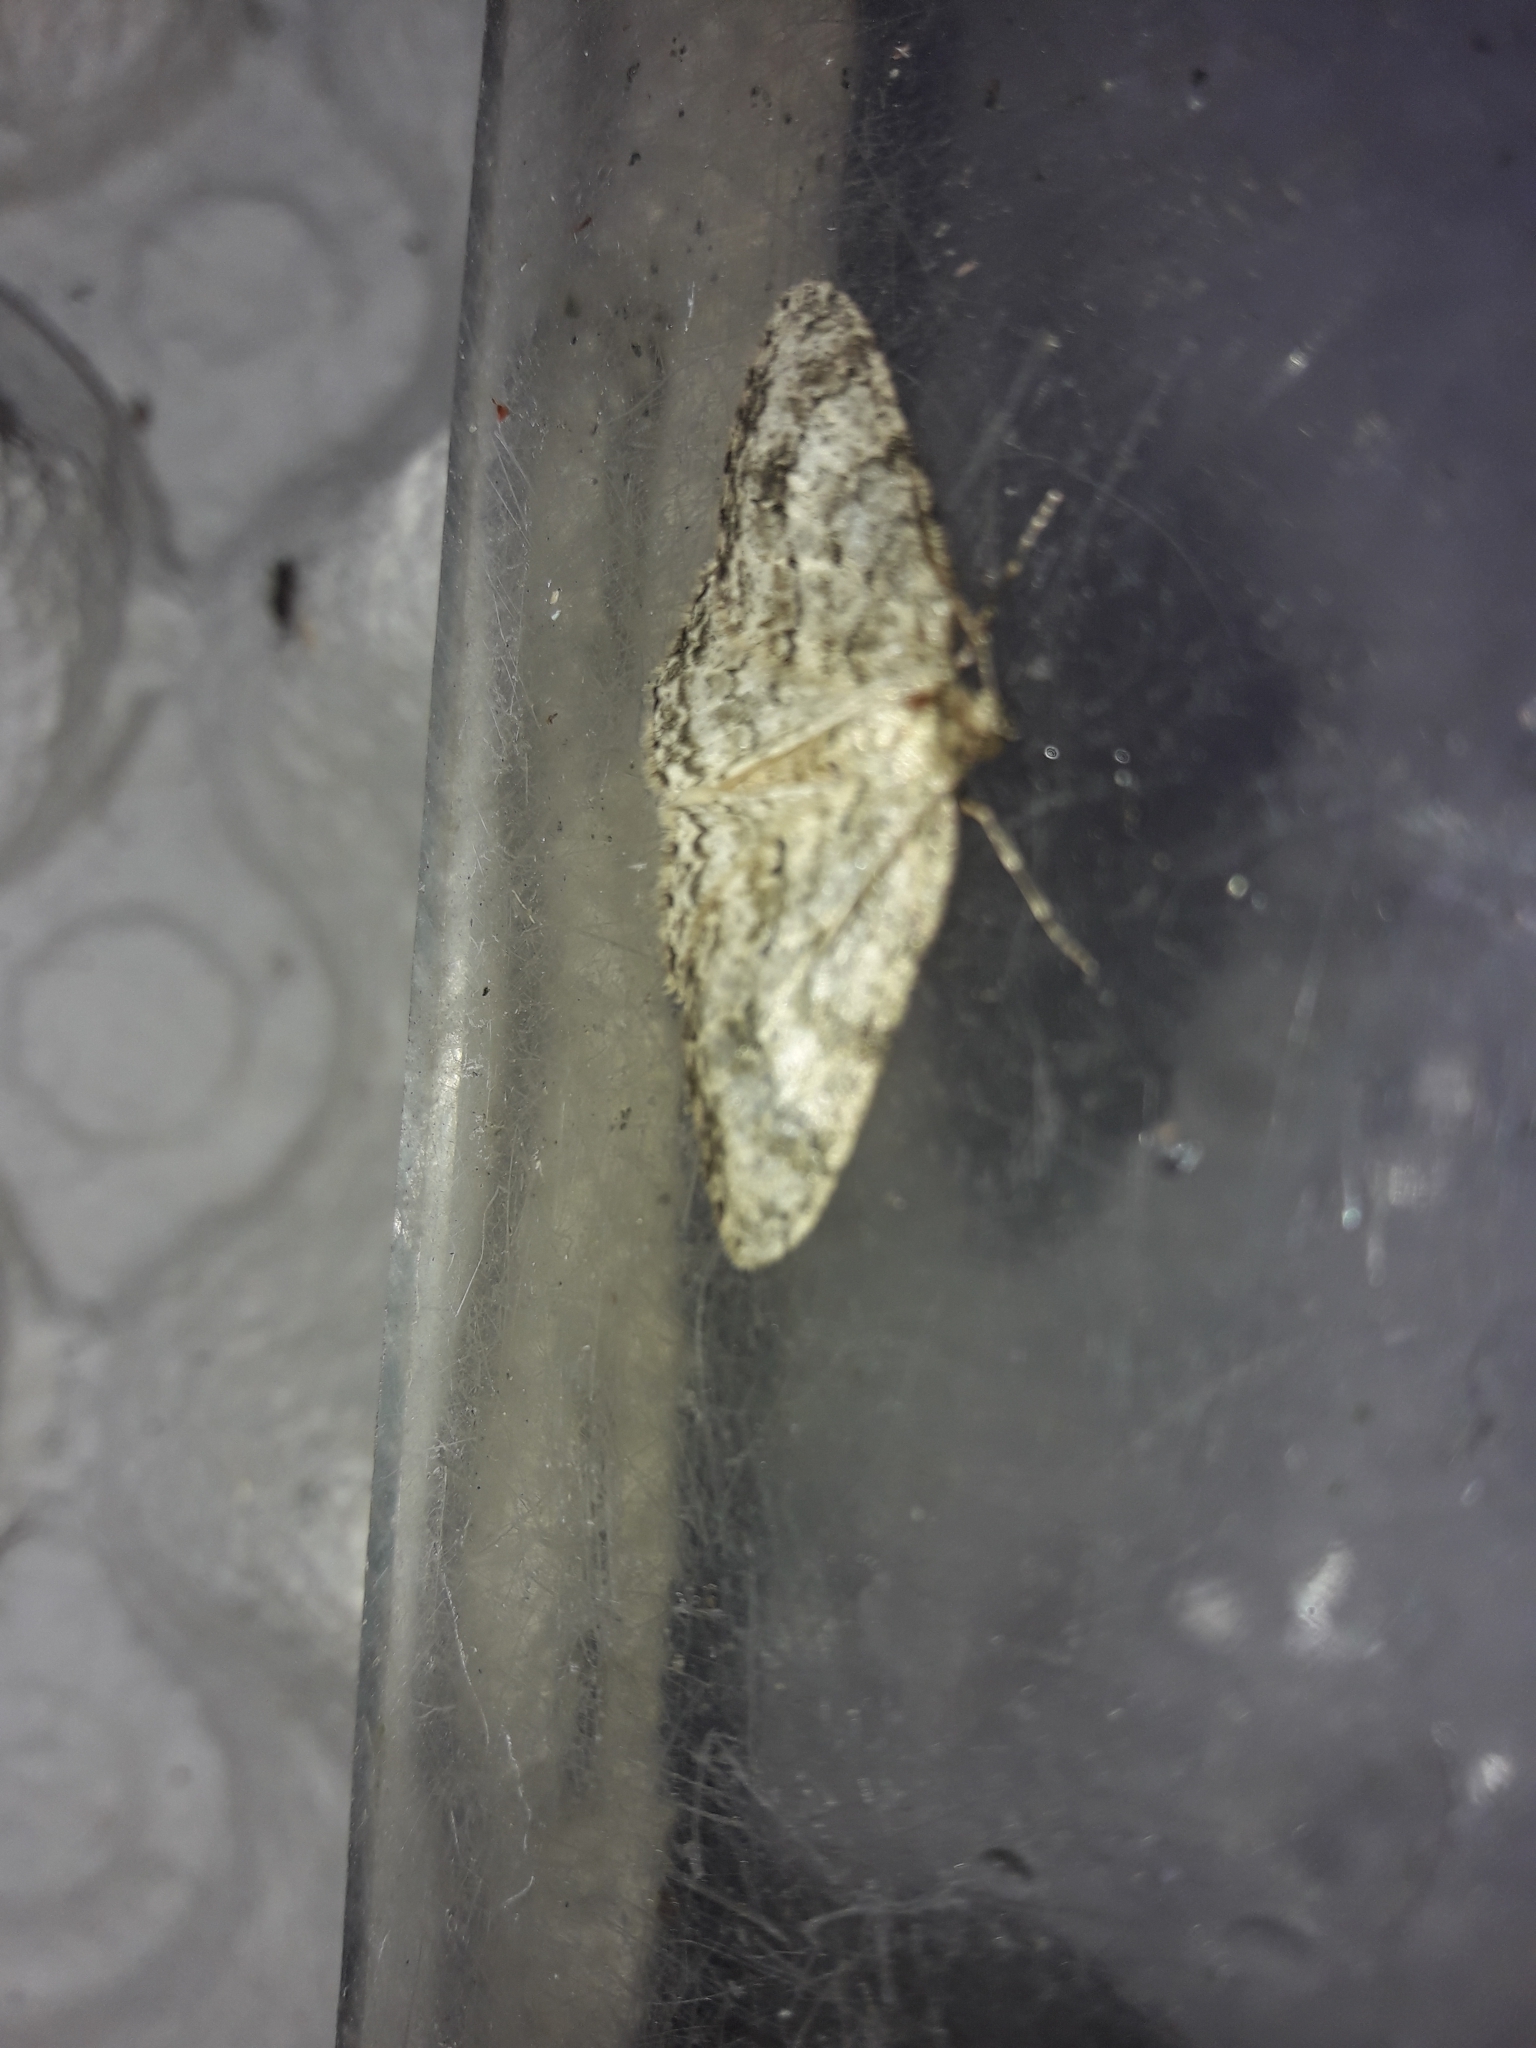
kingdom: Animalia
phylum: Arthropoda
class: Insecta
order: Lepidoptera
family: Geometridae
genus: Ectropis
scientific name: Ectropis crepuscularia
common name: Engrailed
